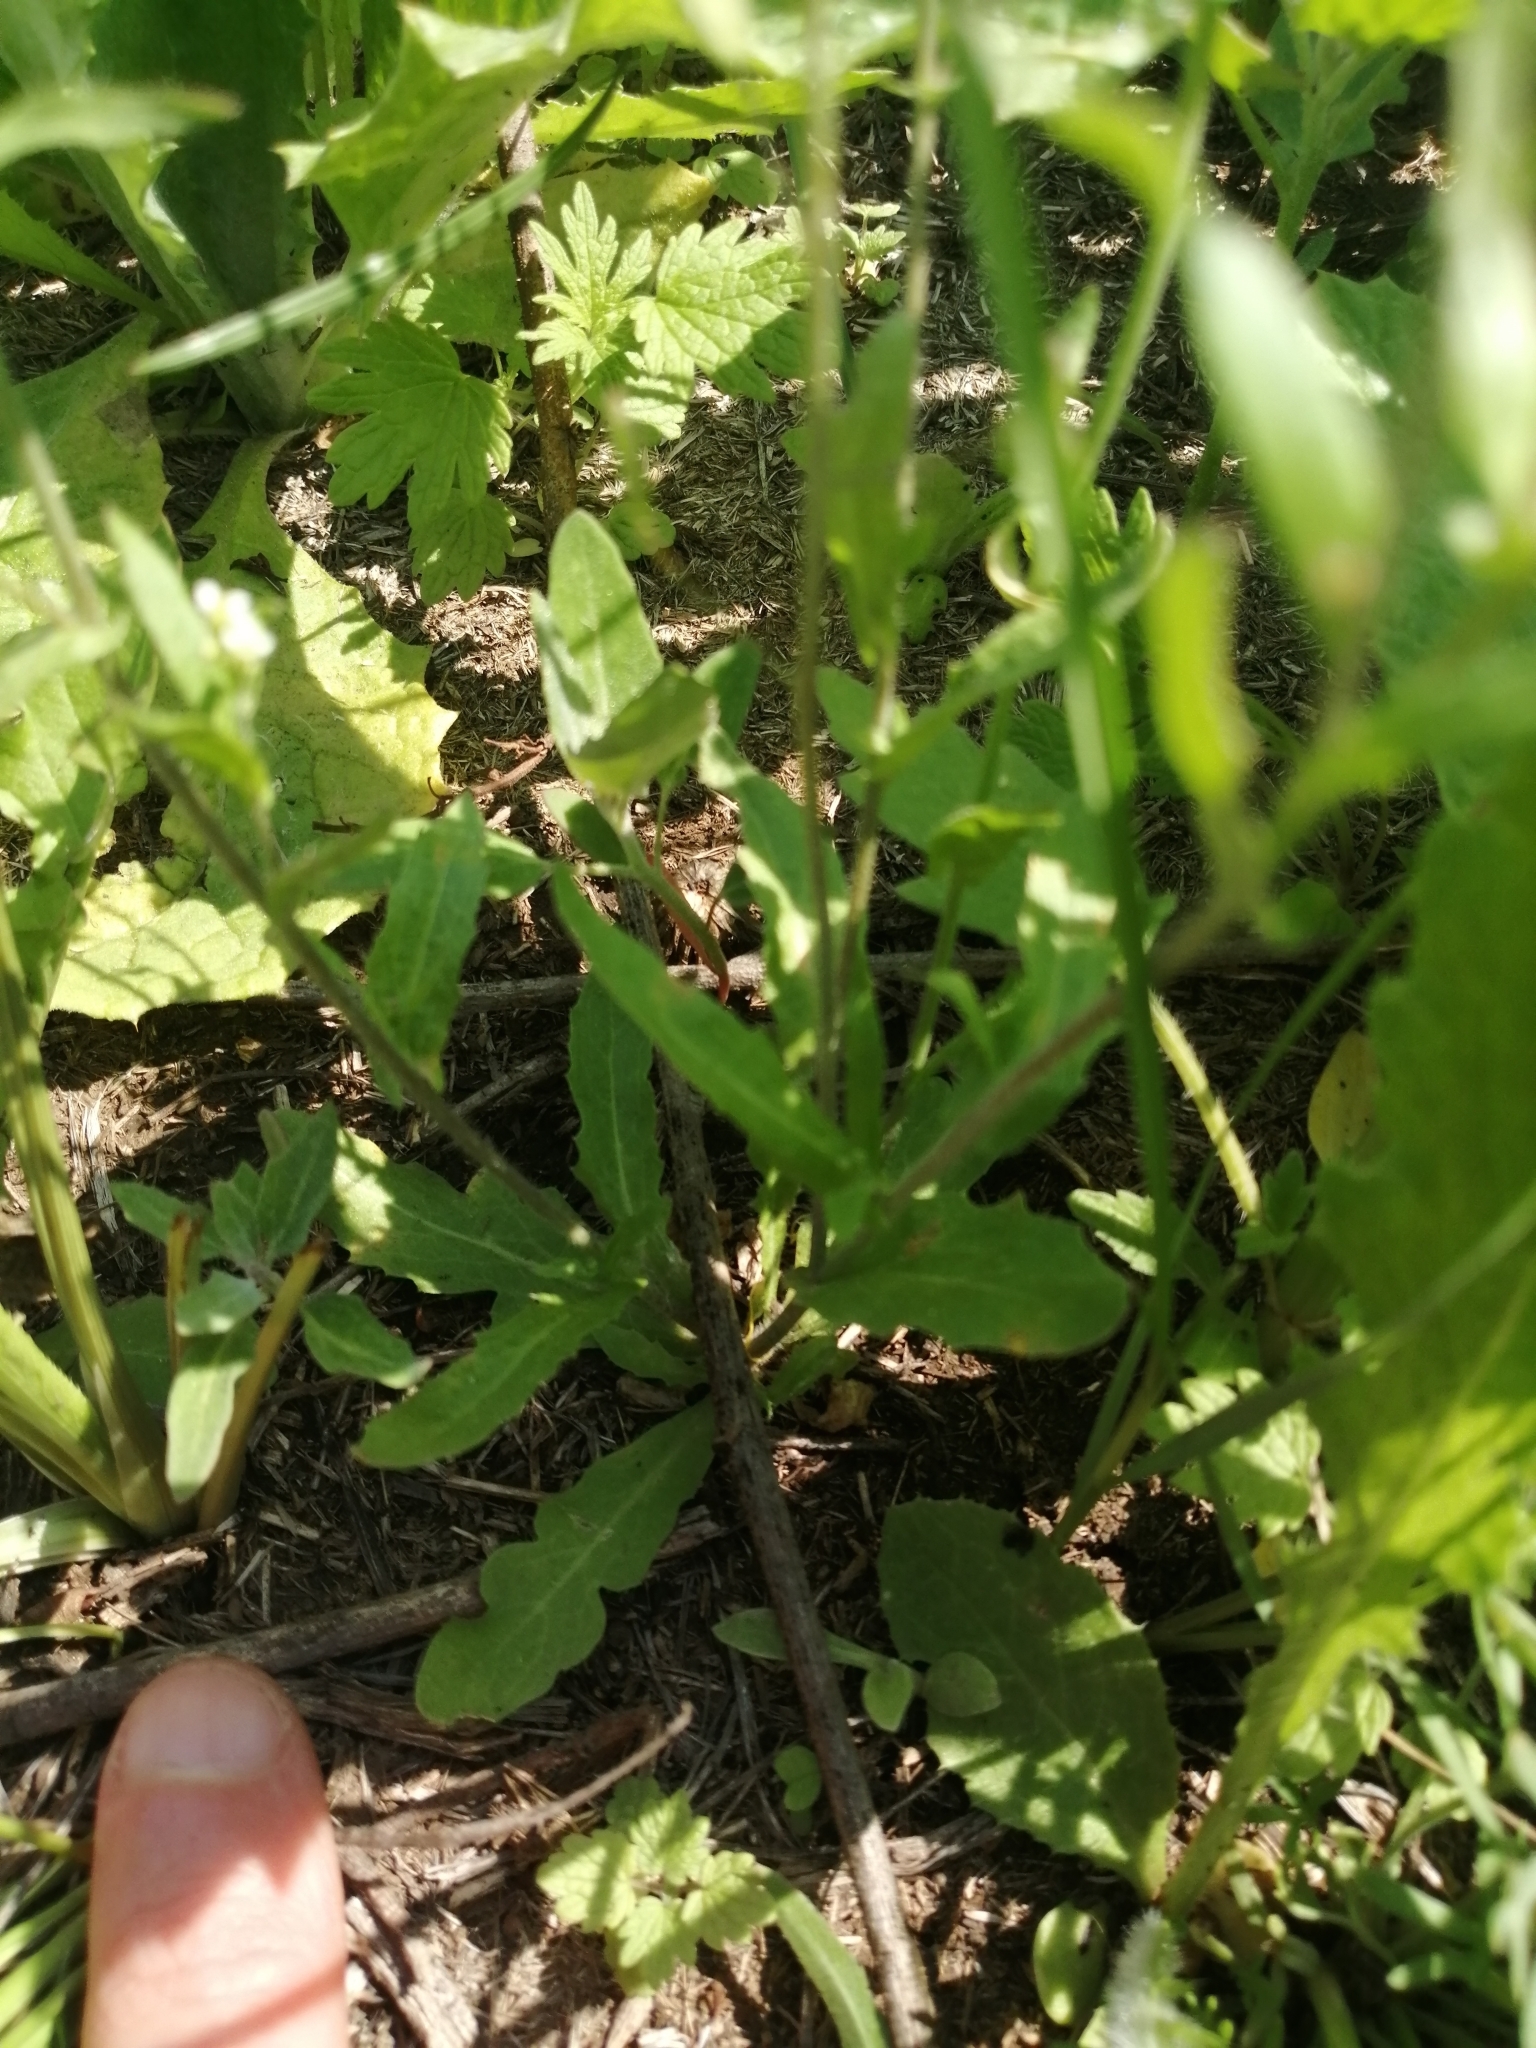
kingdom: Plantae
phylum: Tracheophyta
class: Magnoliopsida
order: Brassicales
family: Brassicaceae
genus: Capsella
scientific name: Capsella bursa-pastoris
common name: Shepherd's purse
